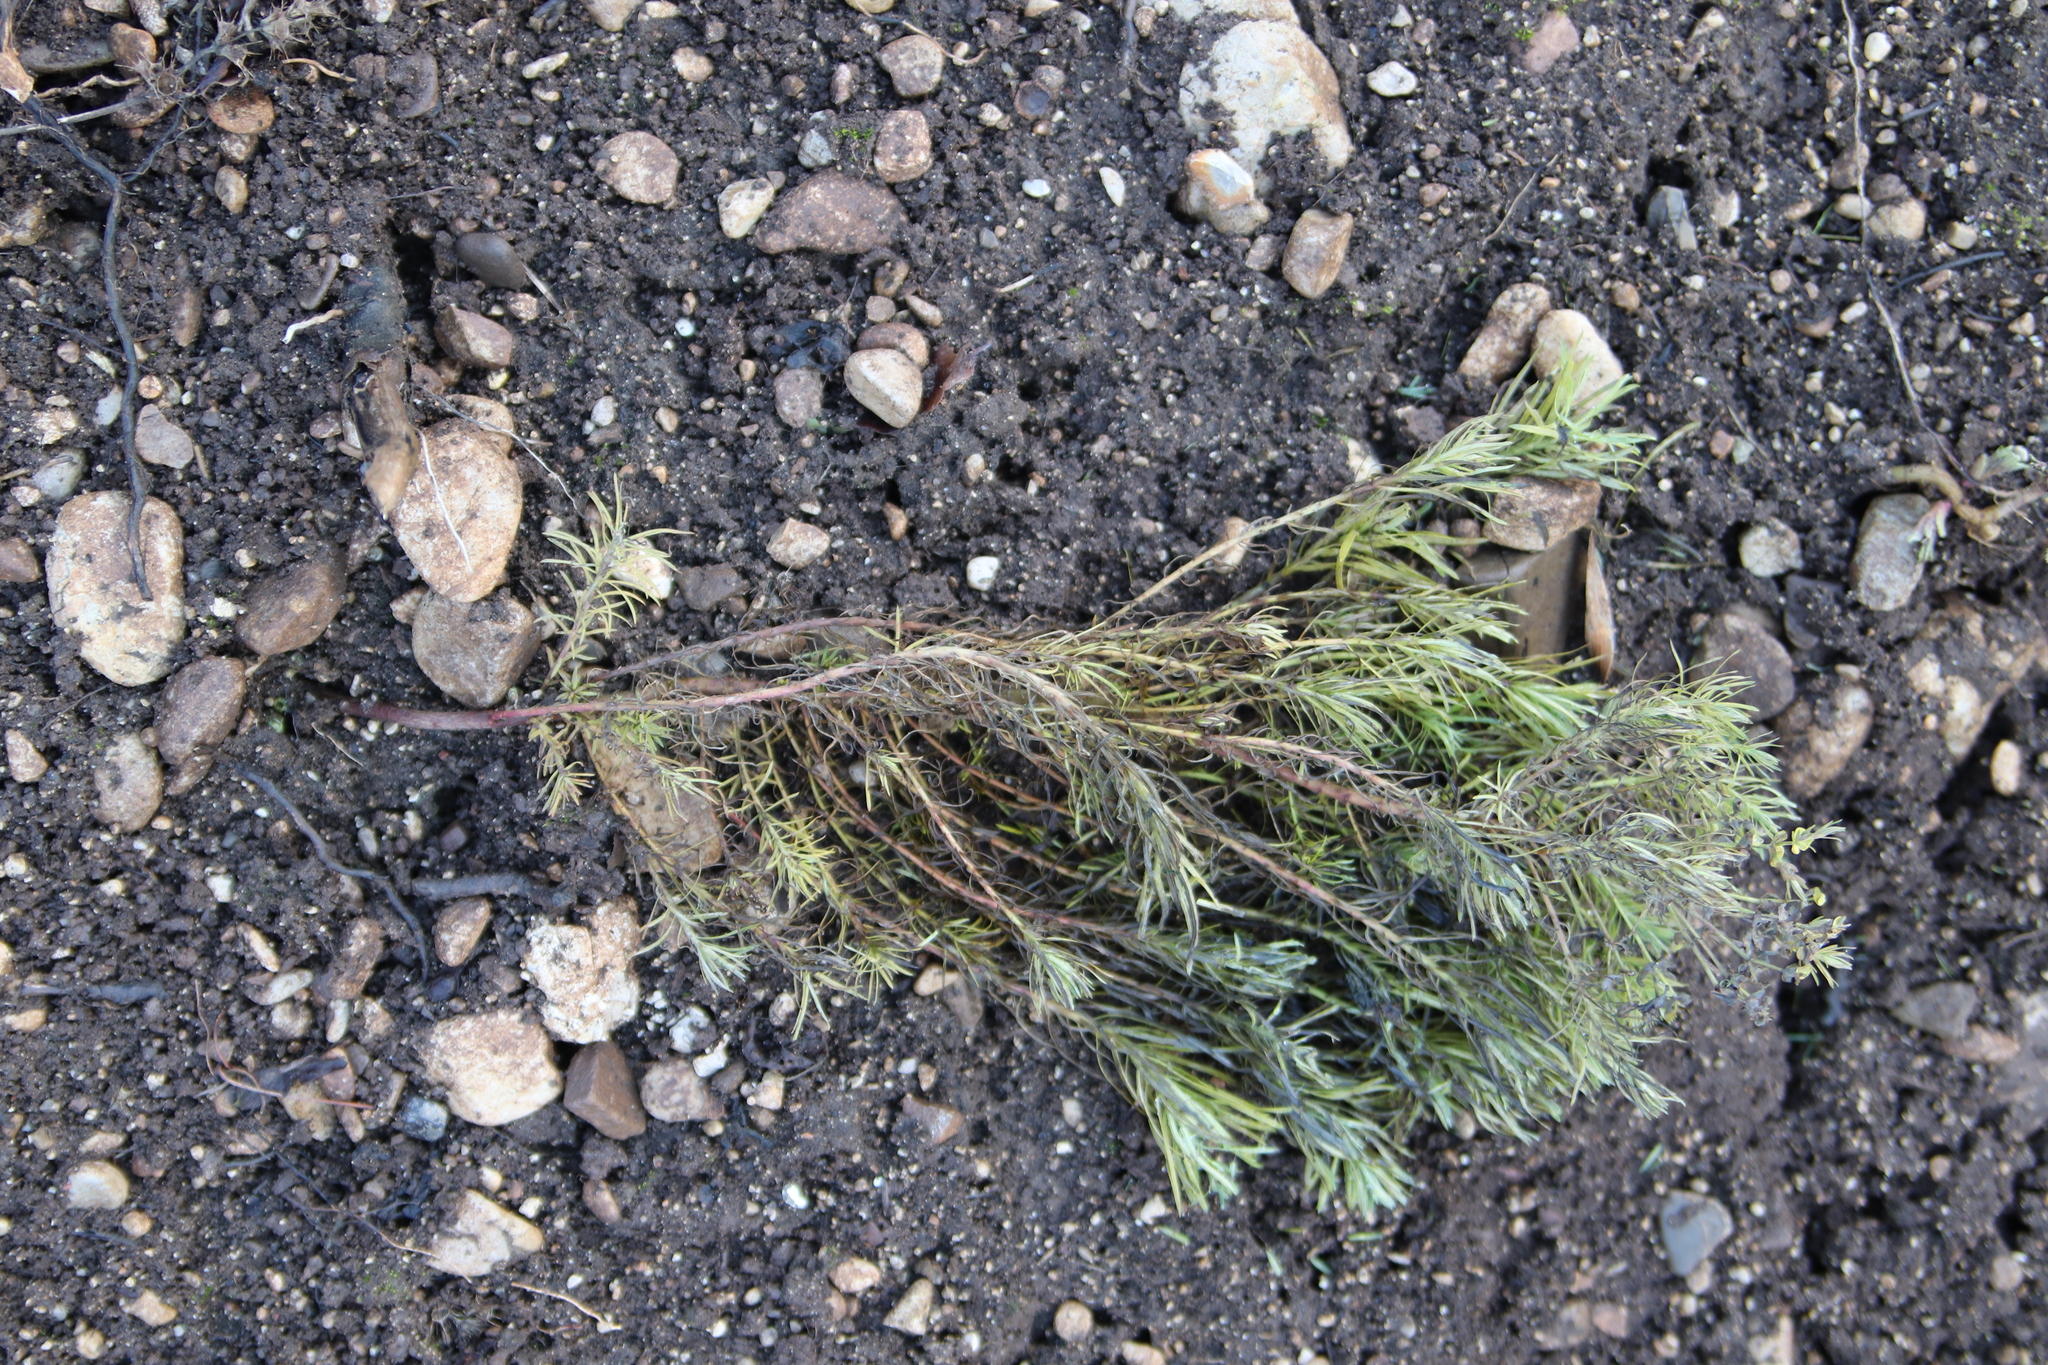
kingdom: Plantae
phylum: Tracheophyta
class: Magnoliopsida
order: Malpighiales
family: Euphorbiaceae
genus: Euphorbia
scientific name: Euphorbia cyparissias
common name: Cypress spurge
